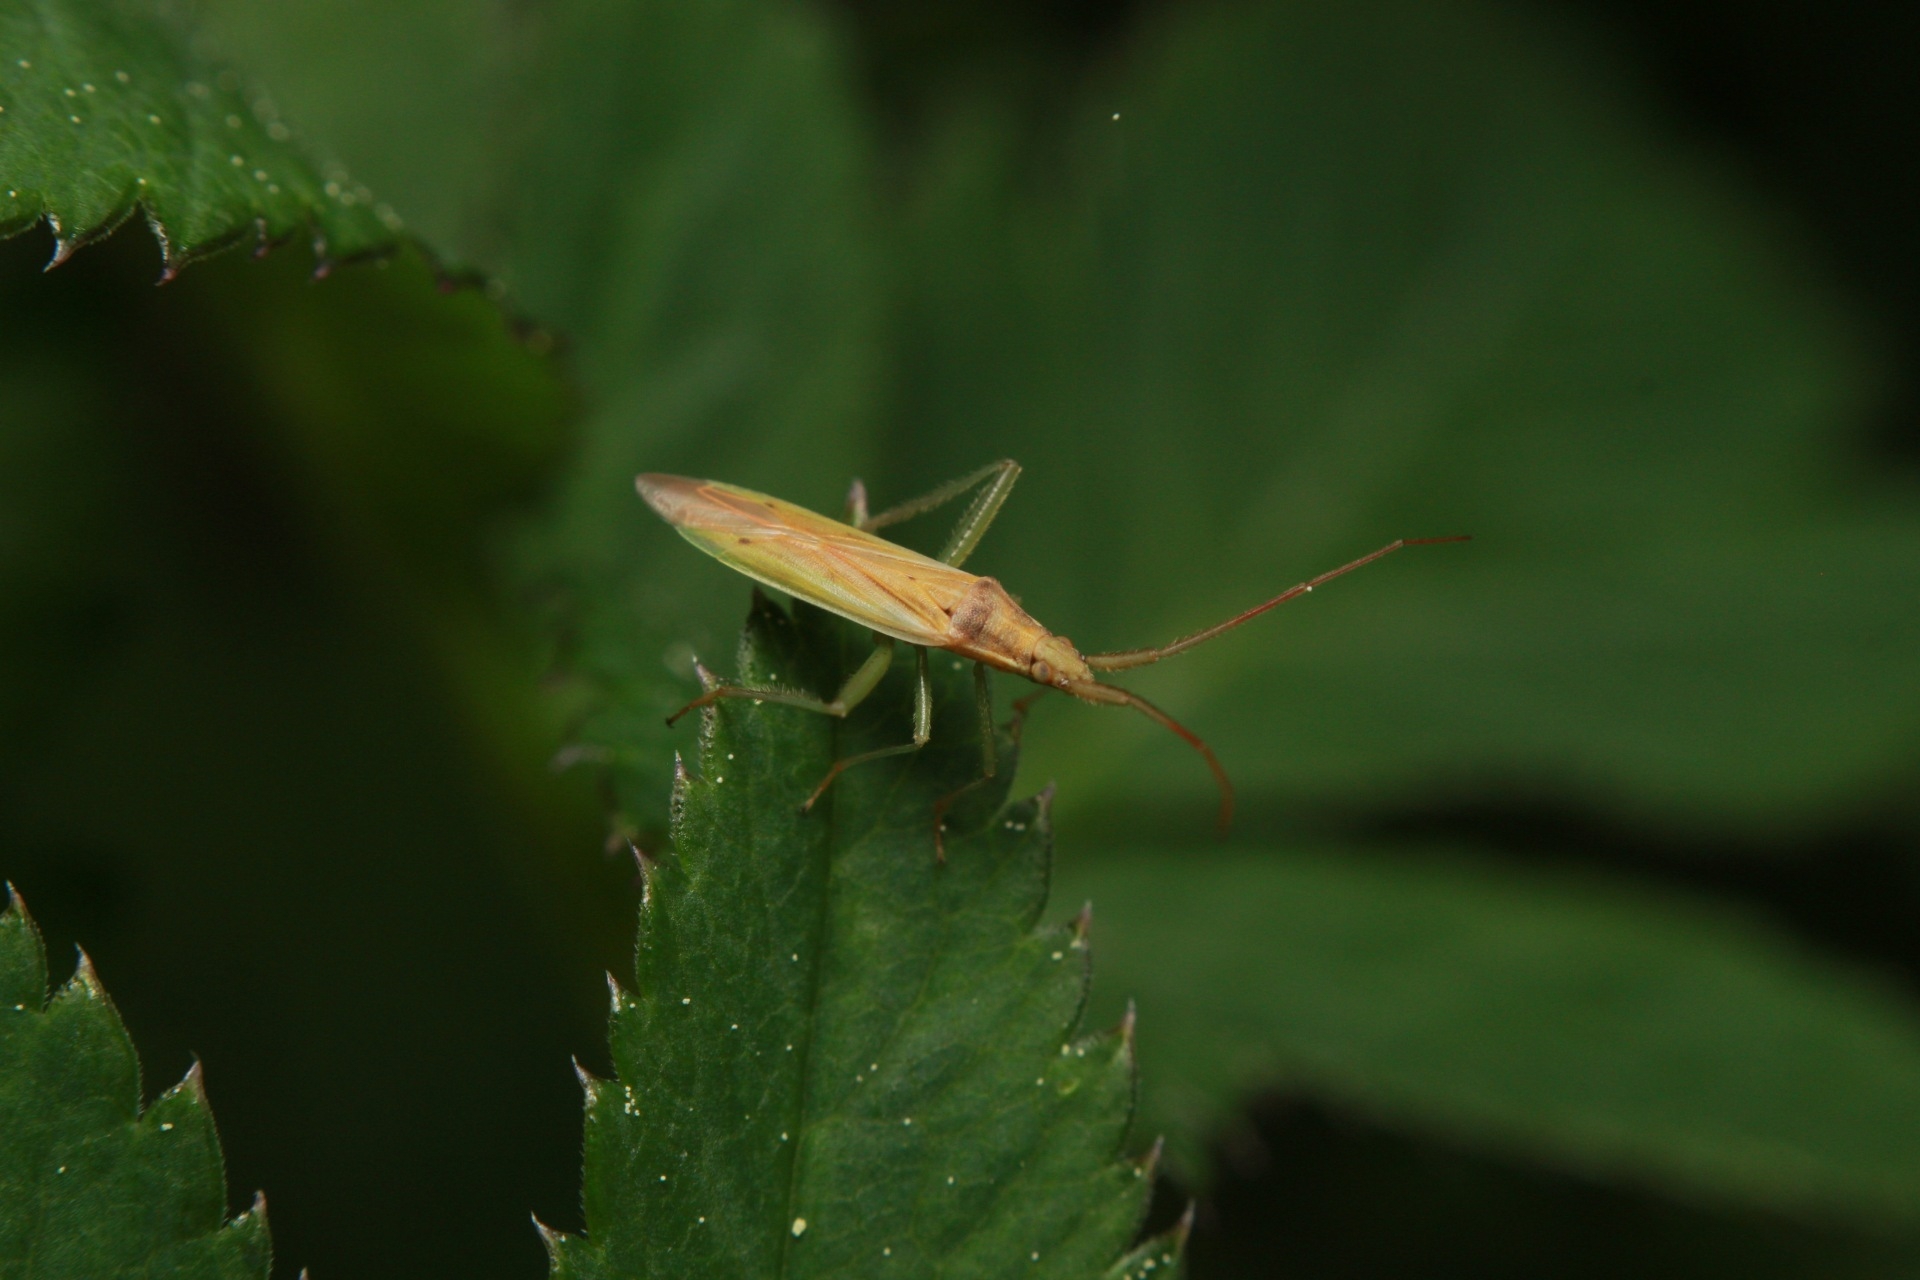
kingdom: Animalia
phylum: Arthropoda
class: Insecta
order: Hemiptera
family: Miridae
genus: Stenodema
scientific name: Stenodema laevigata
